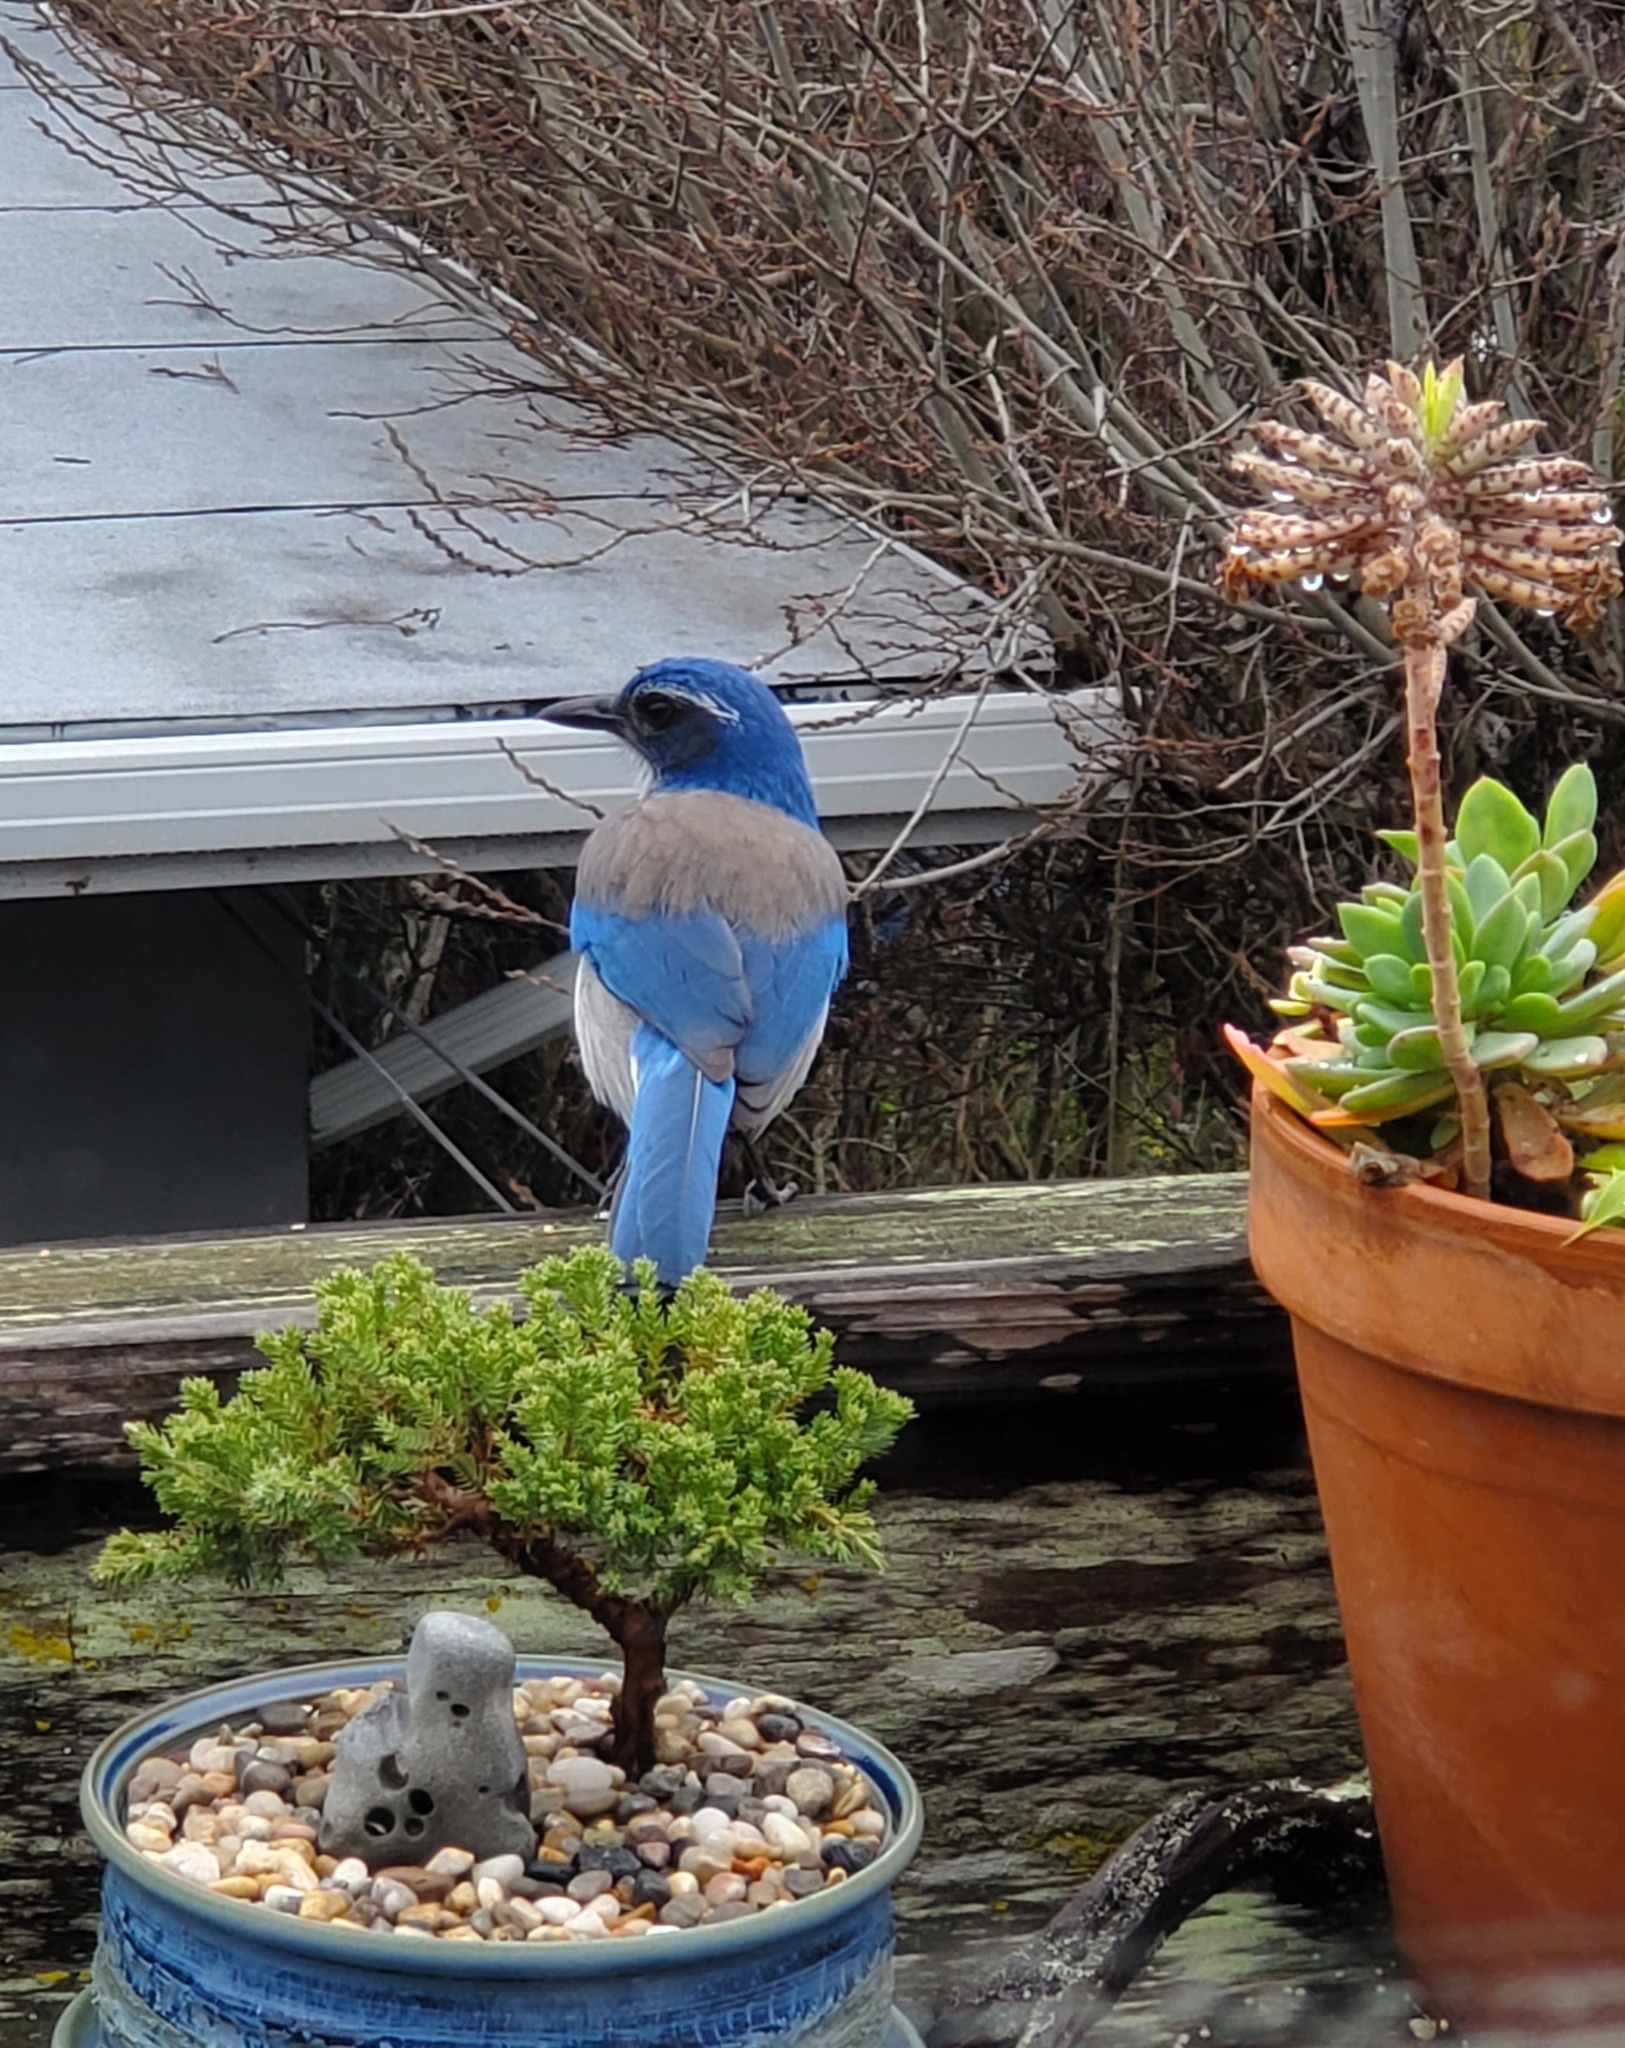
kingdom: Animalia
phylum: Chordata
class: Aves
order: Passeriformes
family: Corvidae
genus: Aphelocoma
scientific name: Aphelocoma californica
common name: California scrub-jay
